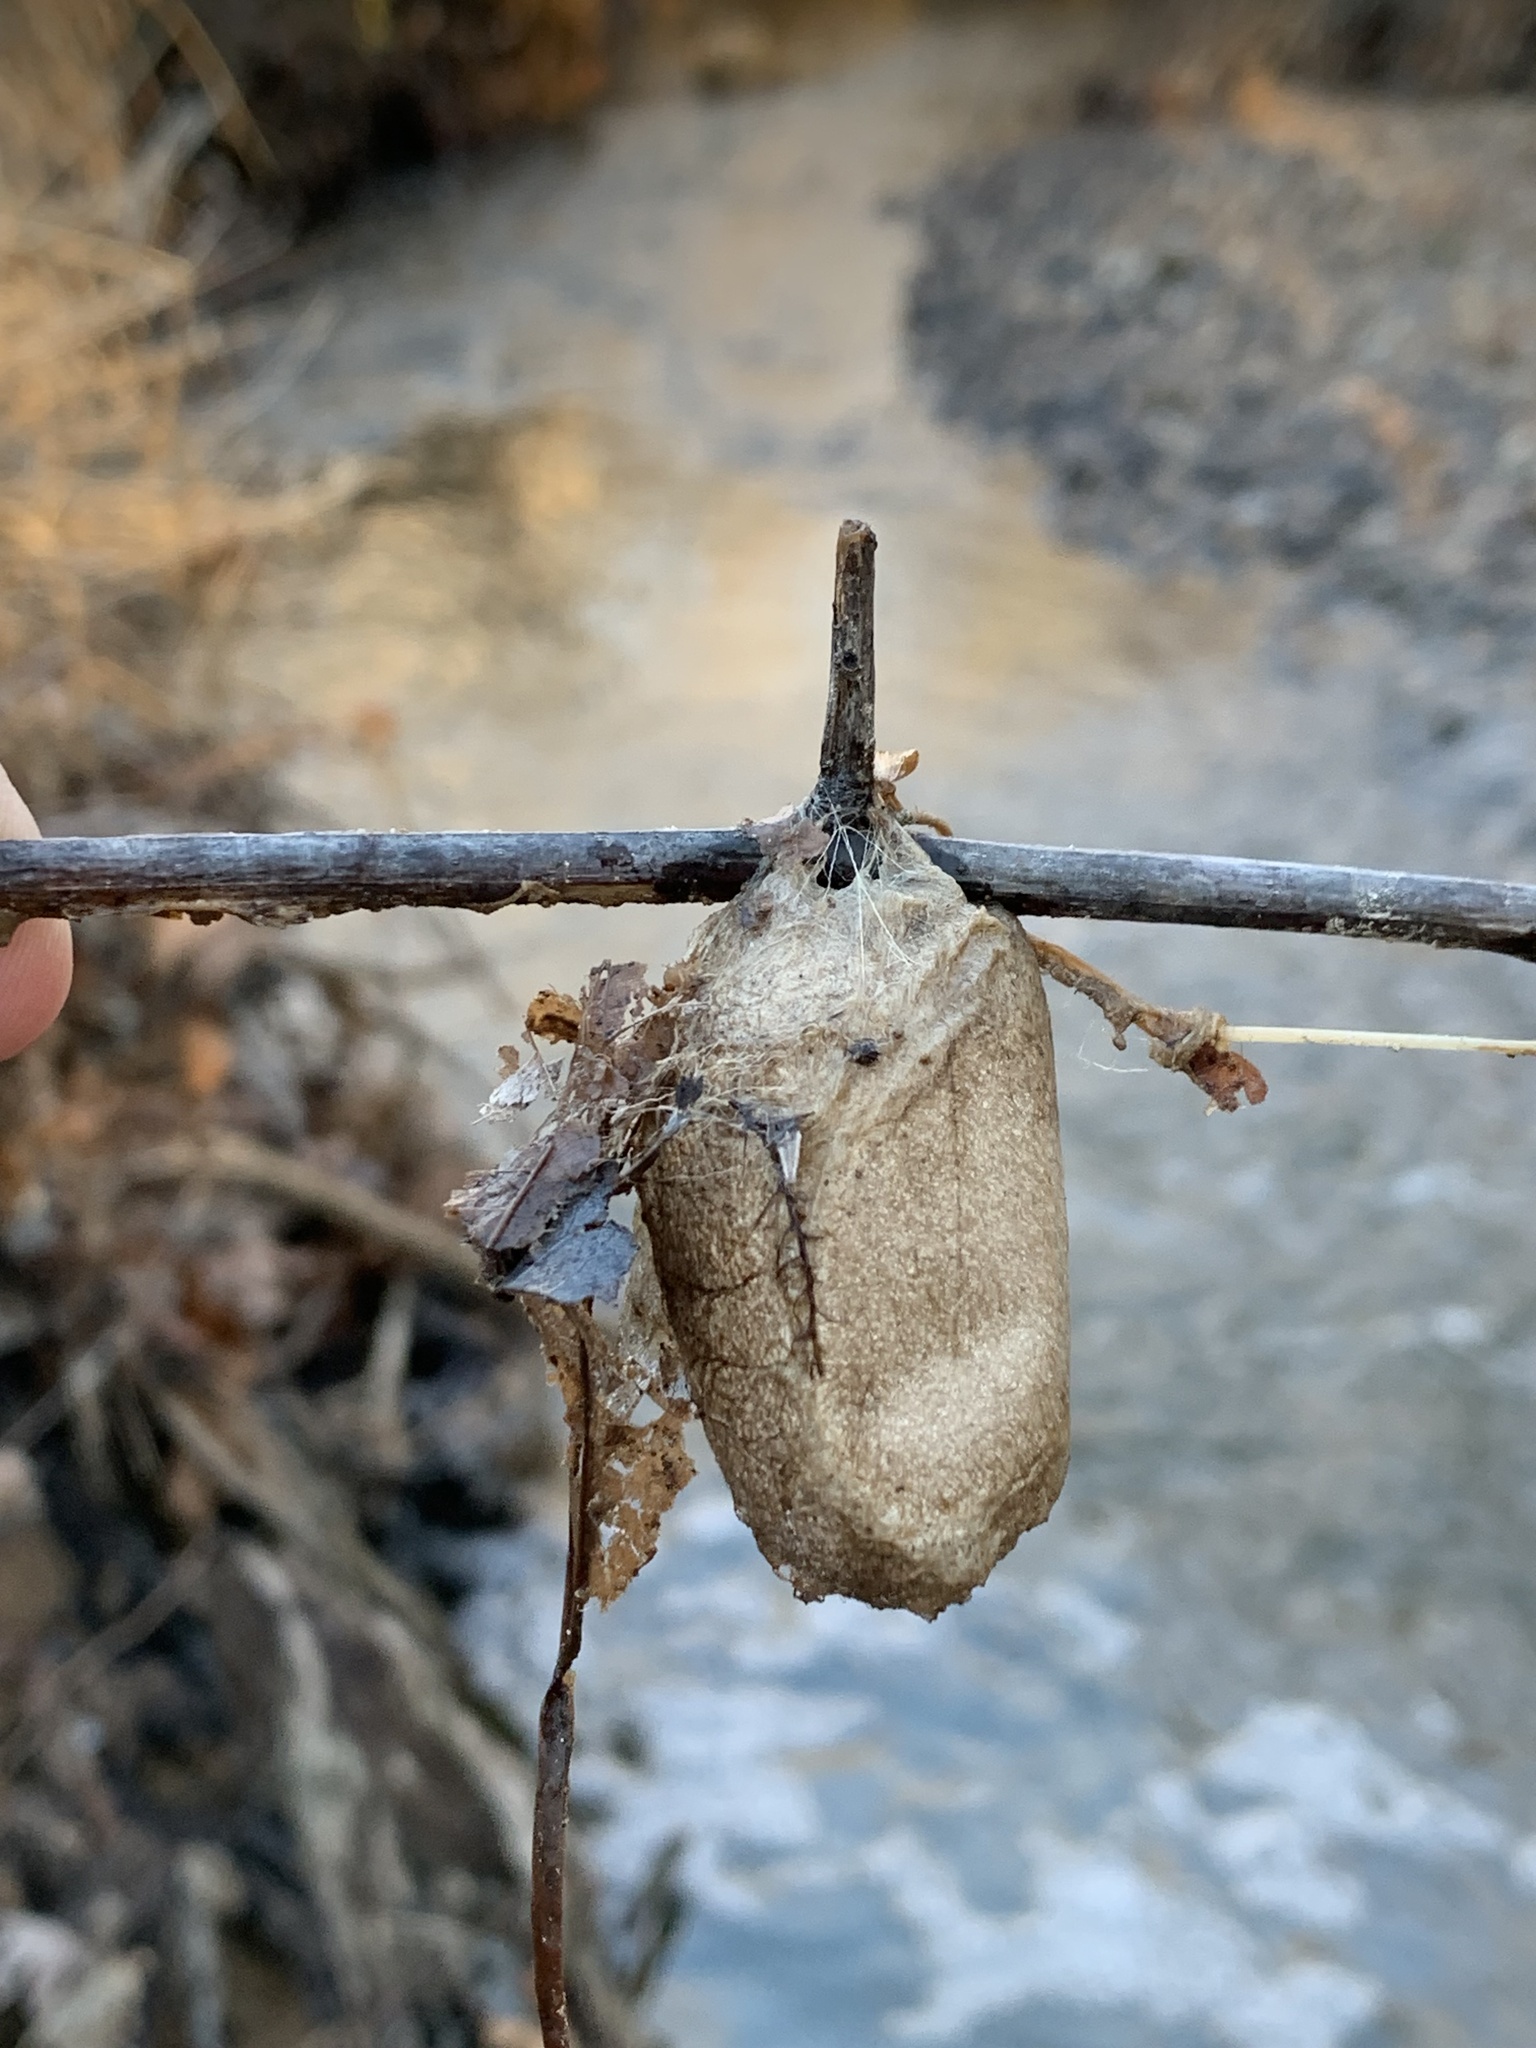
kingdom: Animalia
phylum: Arthropoda
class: Insecta
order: Lepidoptera
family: Saturniidae
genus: Antheraea
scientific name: Antheraea polyphemus
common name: Polyphemus moth
